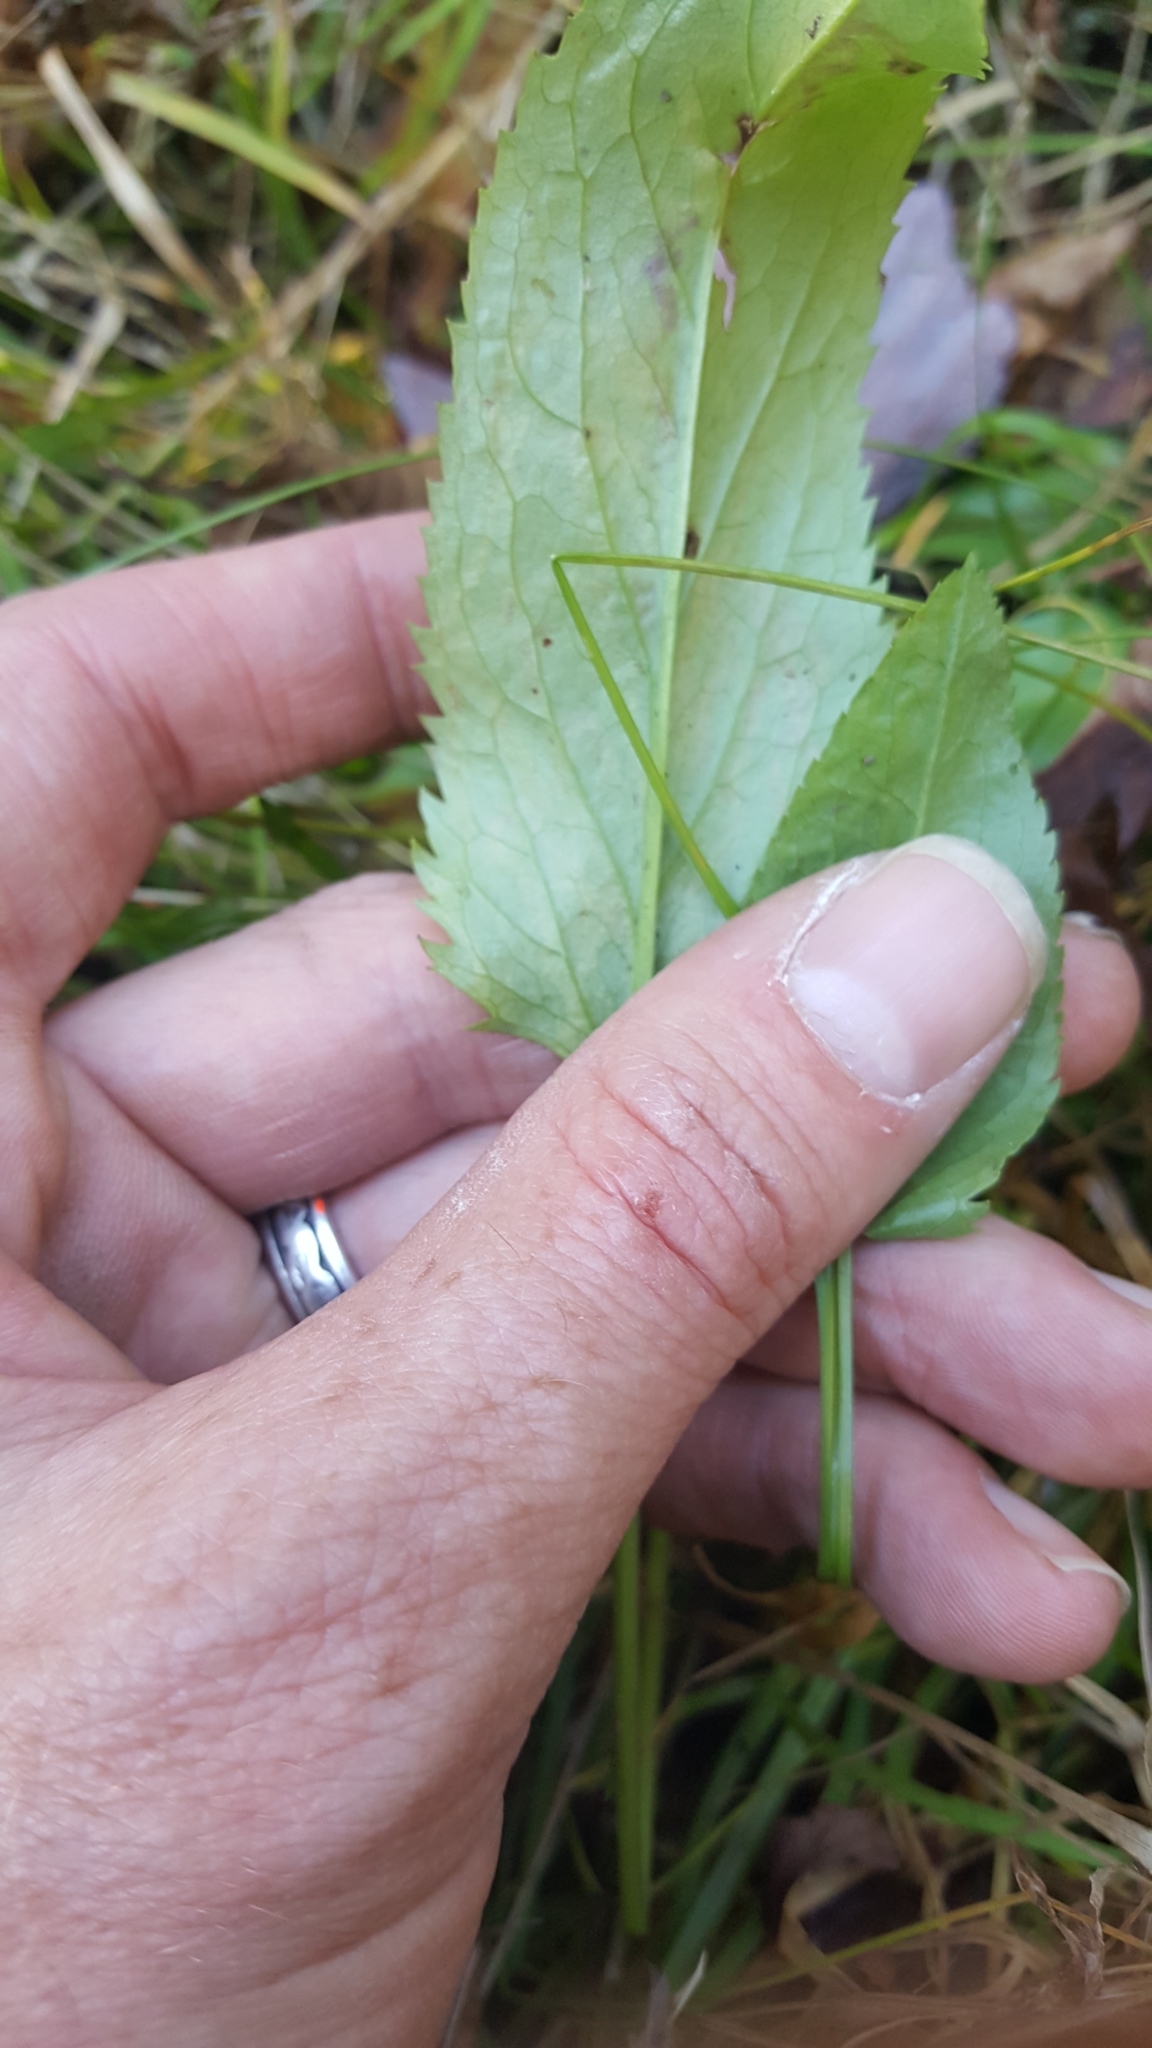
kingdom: Plantae
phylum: Tracheophyta
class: Magnoliopsida
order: Asterales
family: Asteraceae
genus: Packera
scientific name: Packera schweinitziana
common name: Schweinitz's ragwort
